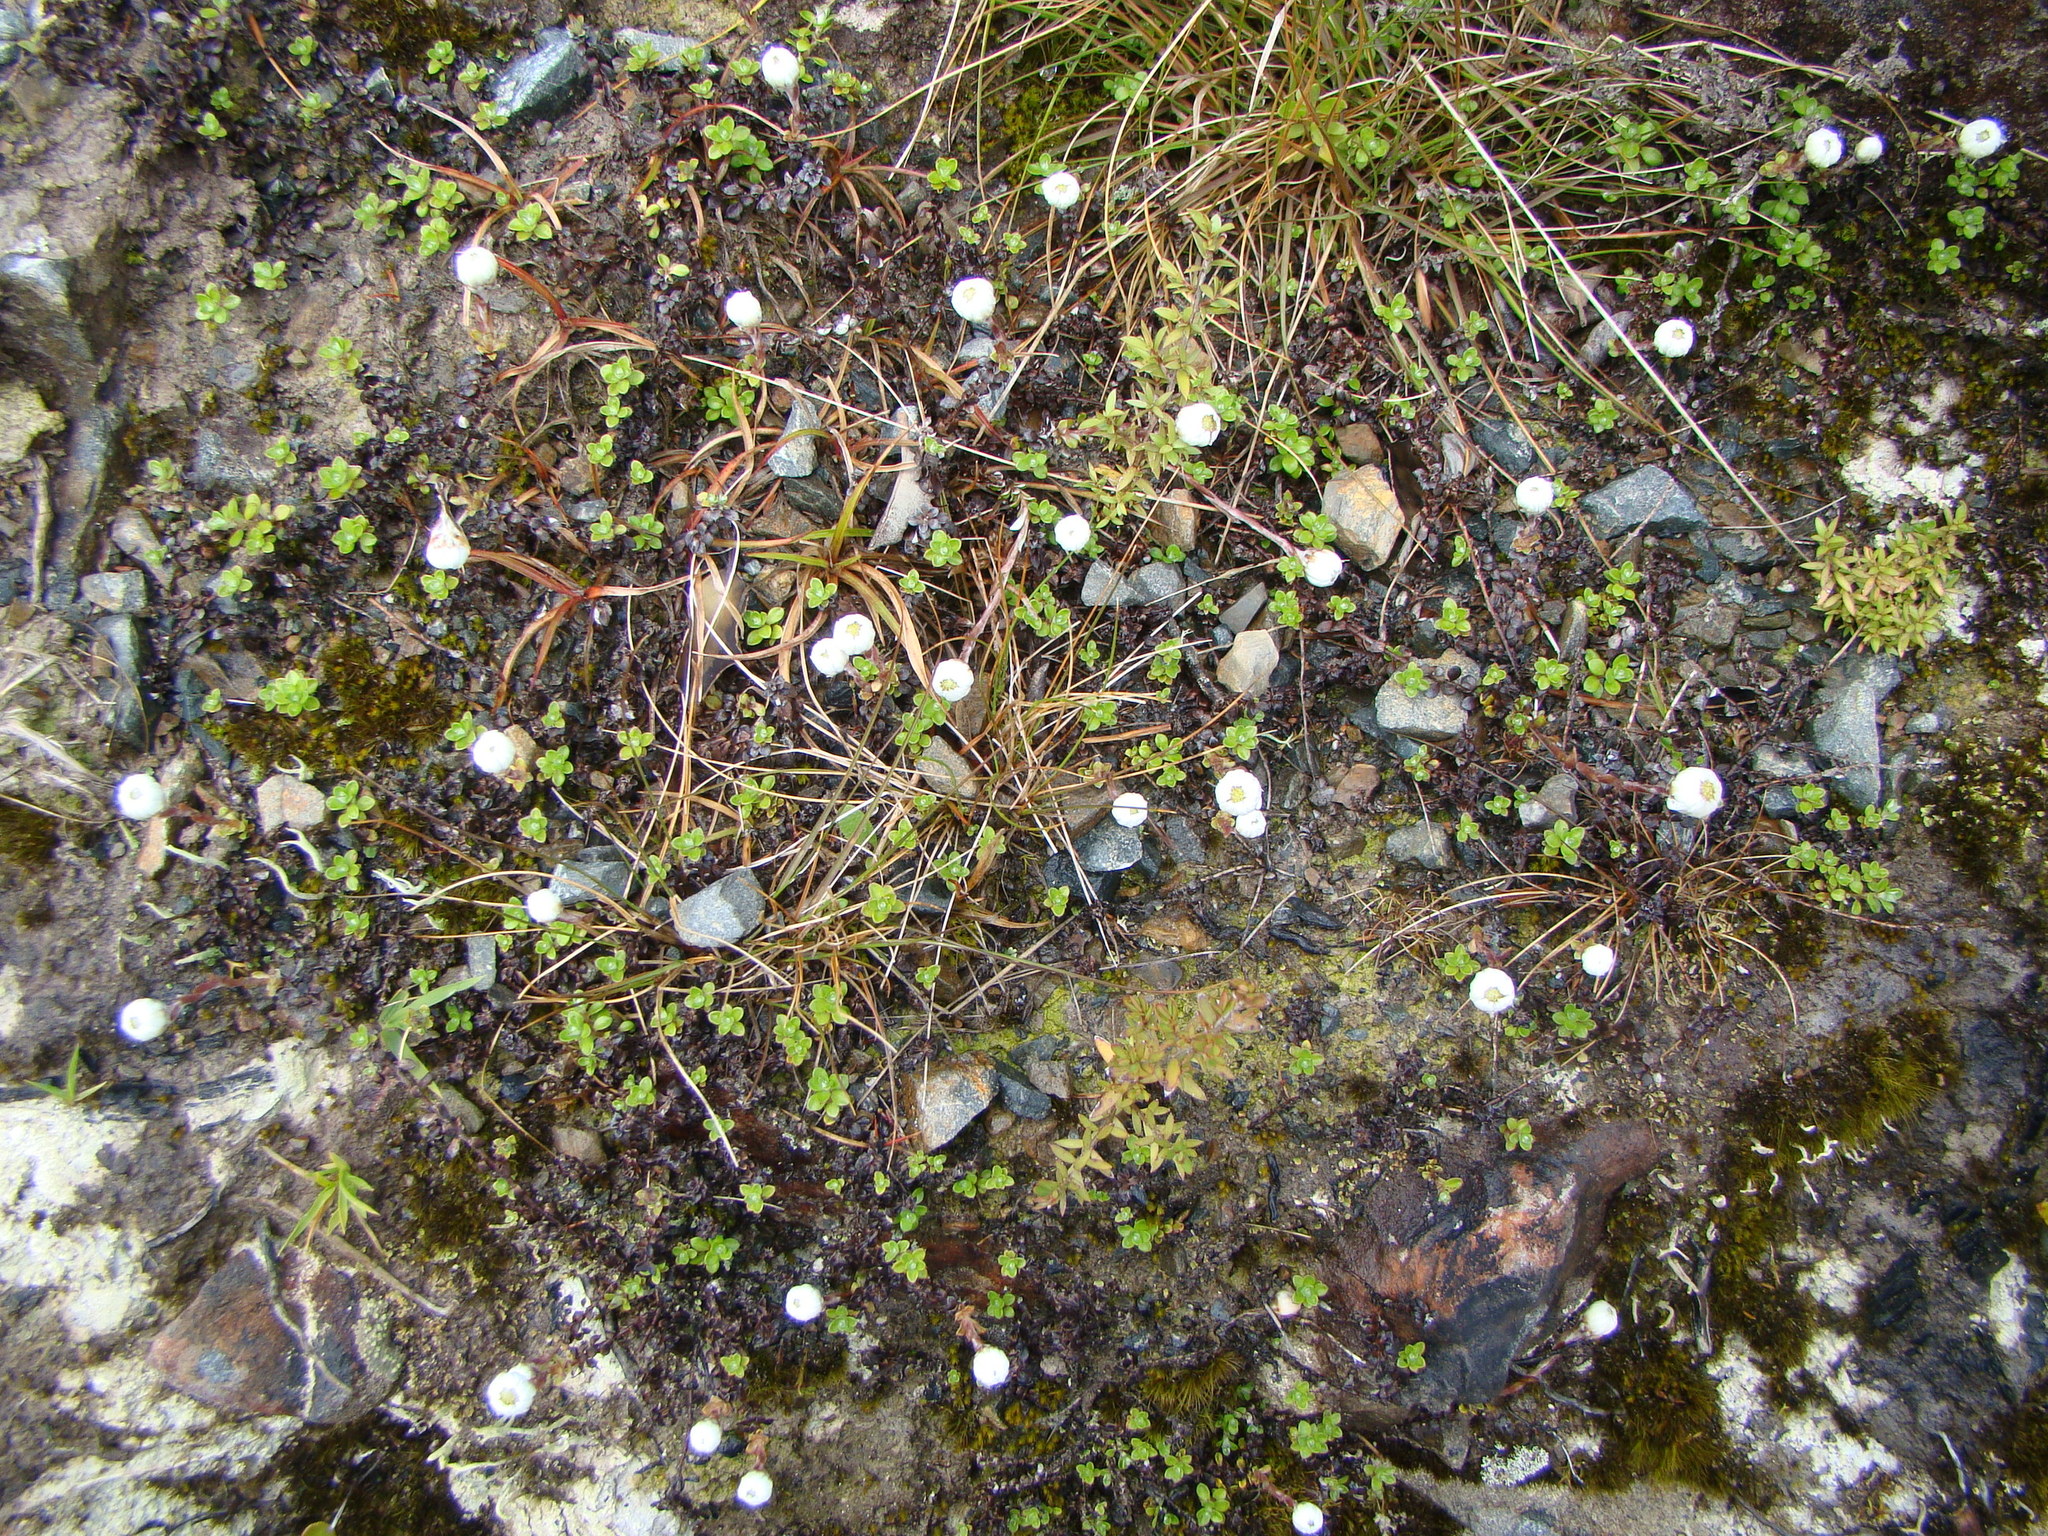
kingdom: Plantae
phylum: Tracheophyta
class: Magnoliopsida
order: Asterales
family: Asteraceae
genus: Anaphalioides
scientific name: Anaphalioides bellidioides
